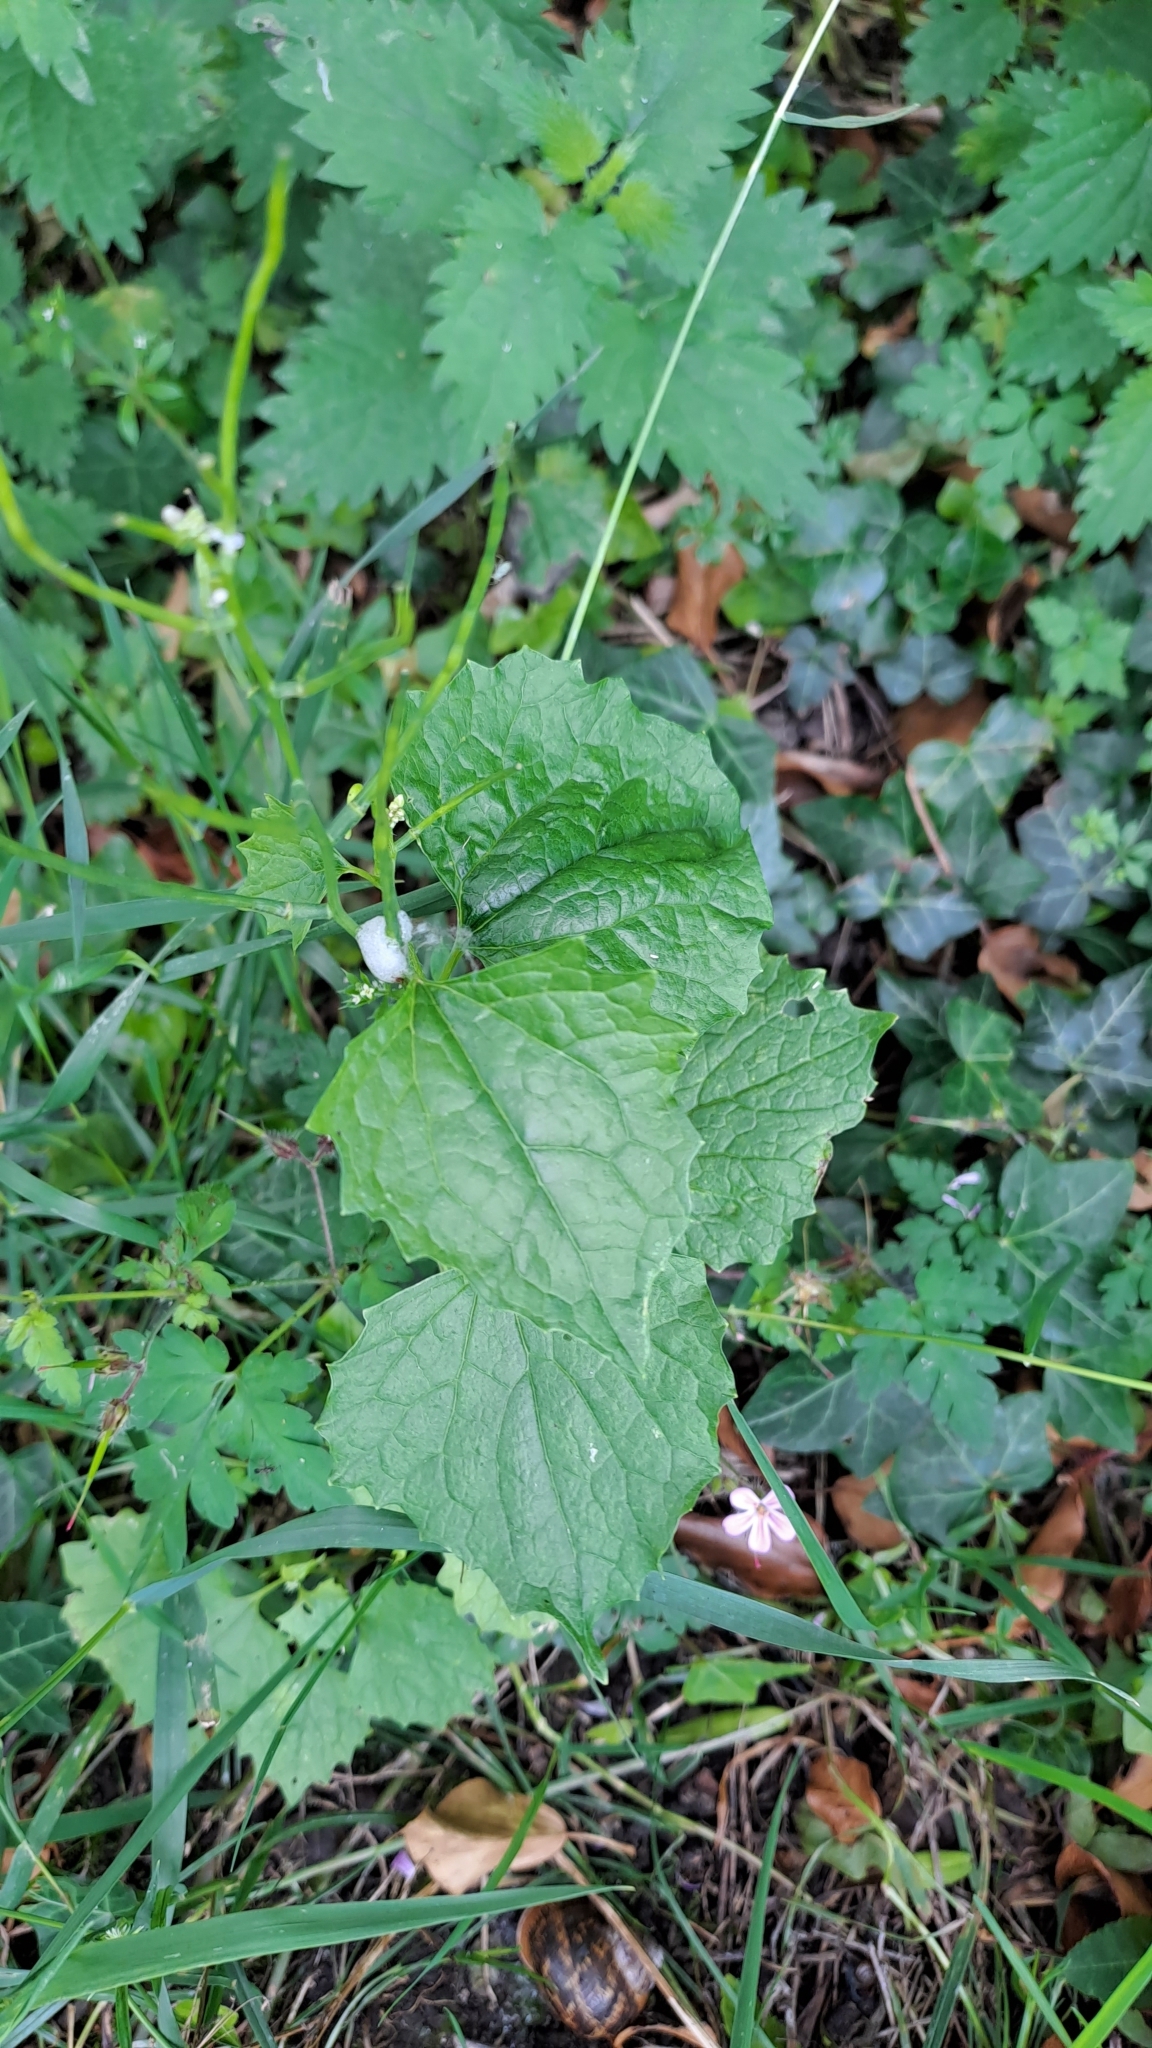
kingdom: Plantae
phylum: Tracheophyta
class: Magnoliopsida
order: Brassicales
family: Brassicaceae
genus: Alliaria
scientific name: Alliaria petiolata
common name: Garlic mustard
